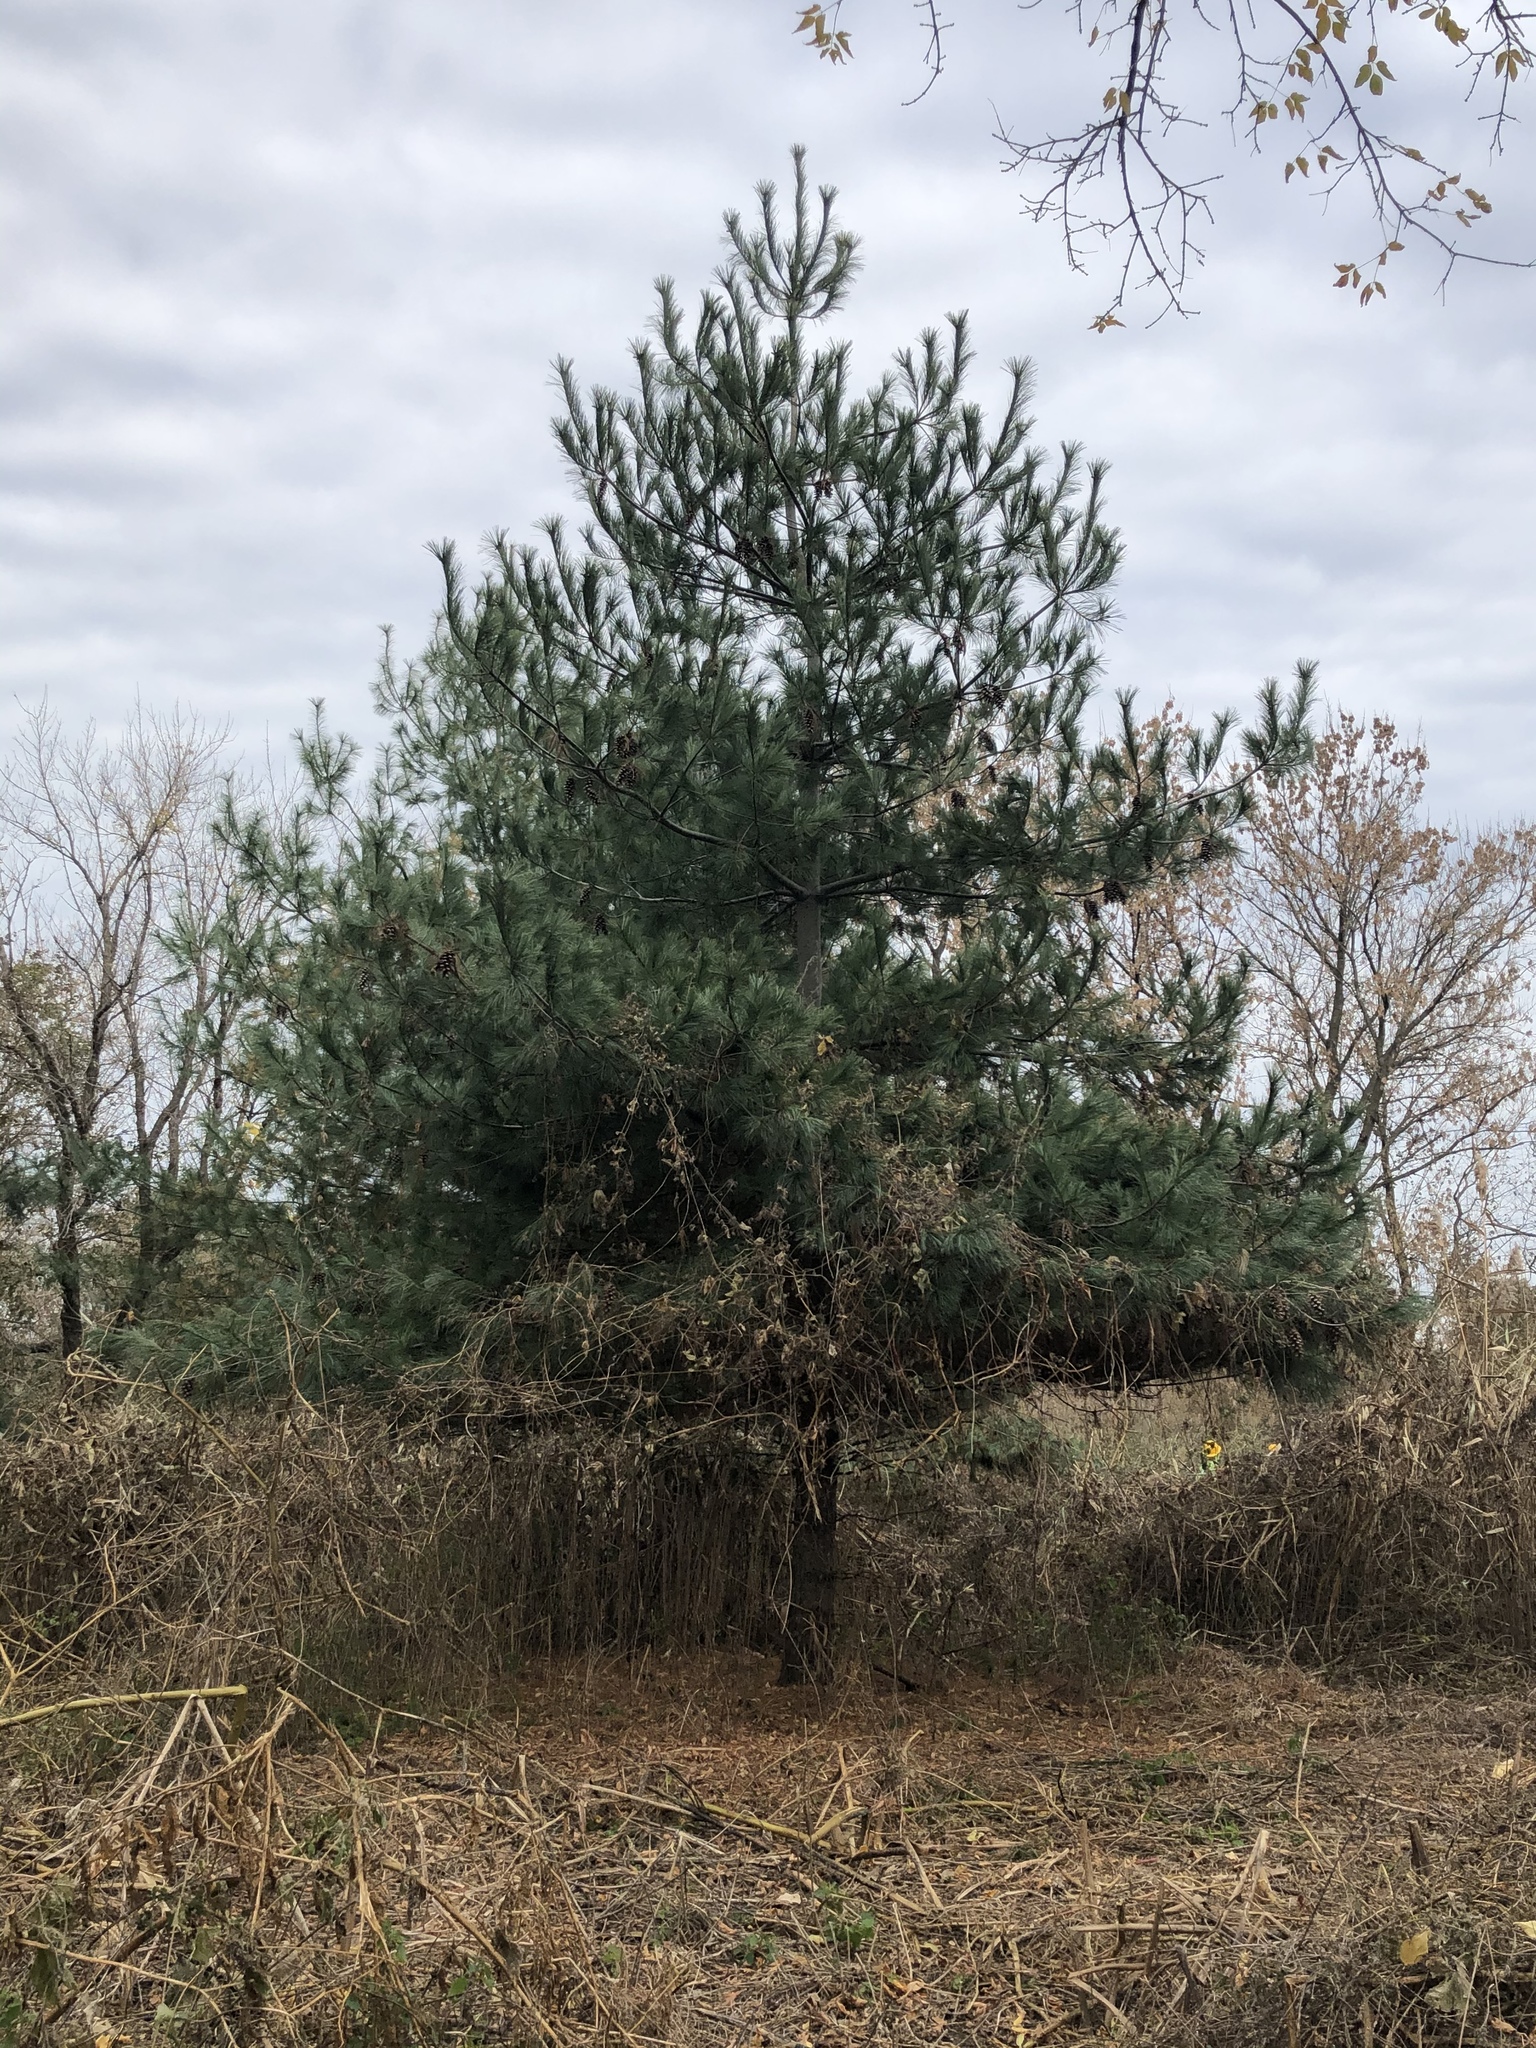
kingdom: Plantae
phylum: Tracheophyta
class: Pinopsida
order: Pinales
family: Pinaceae
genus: Pinus
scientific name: Pinus strobus
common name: Weymouth pine
